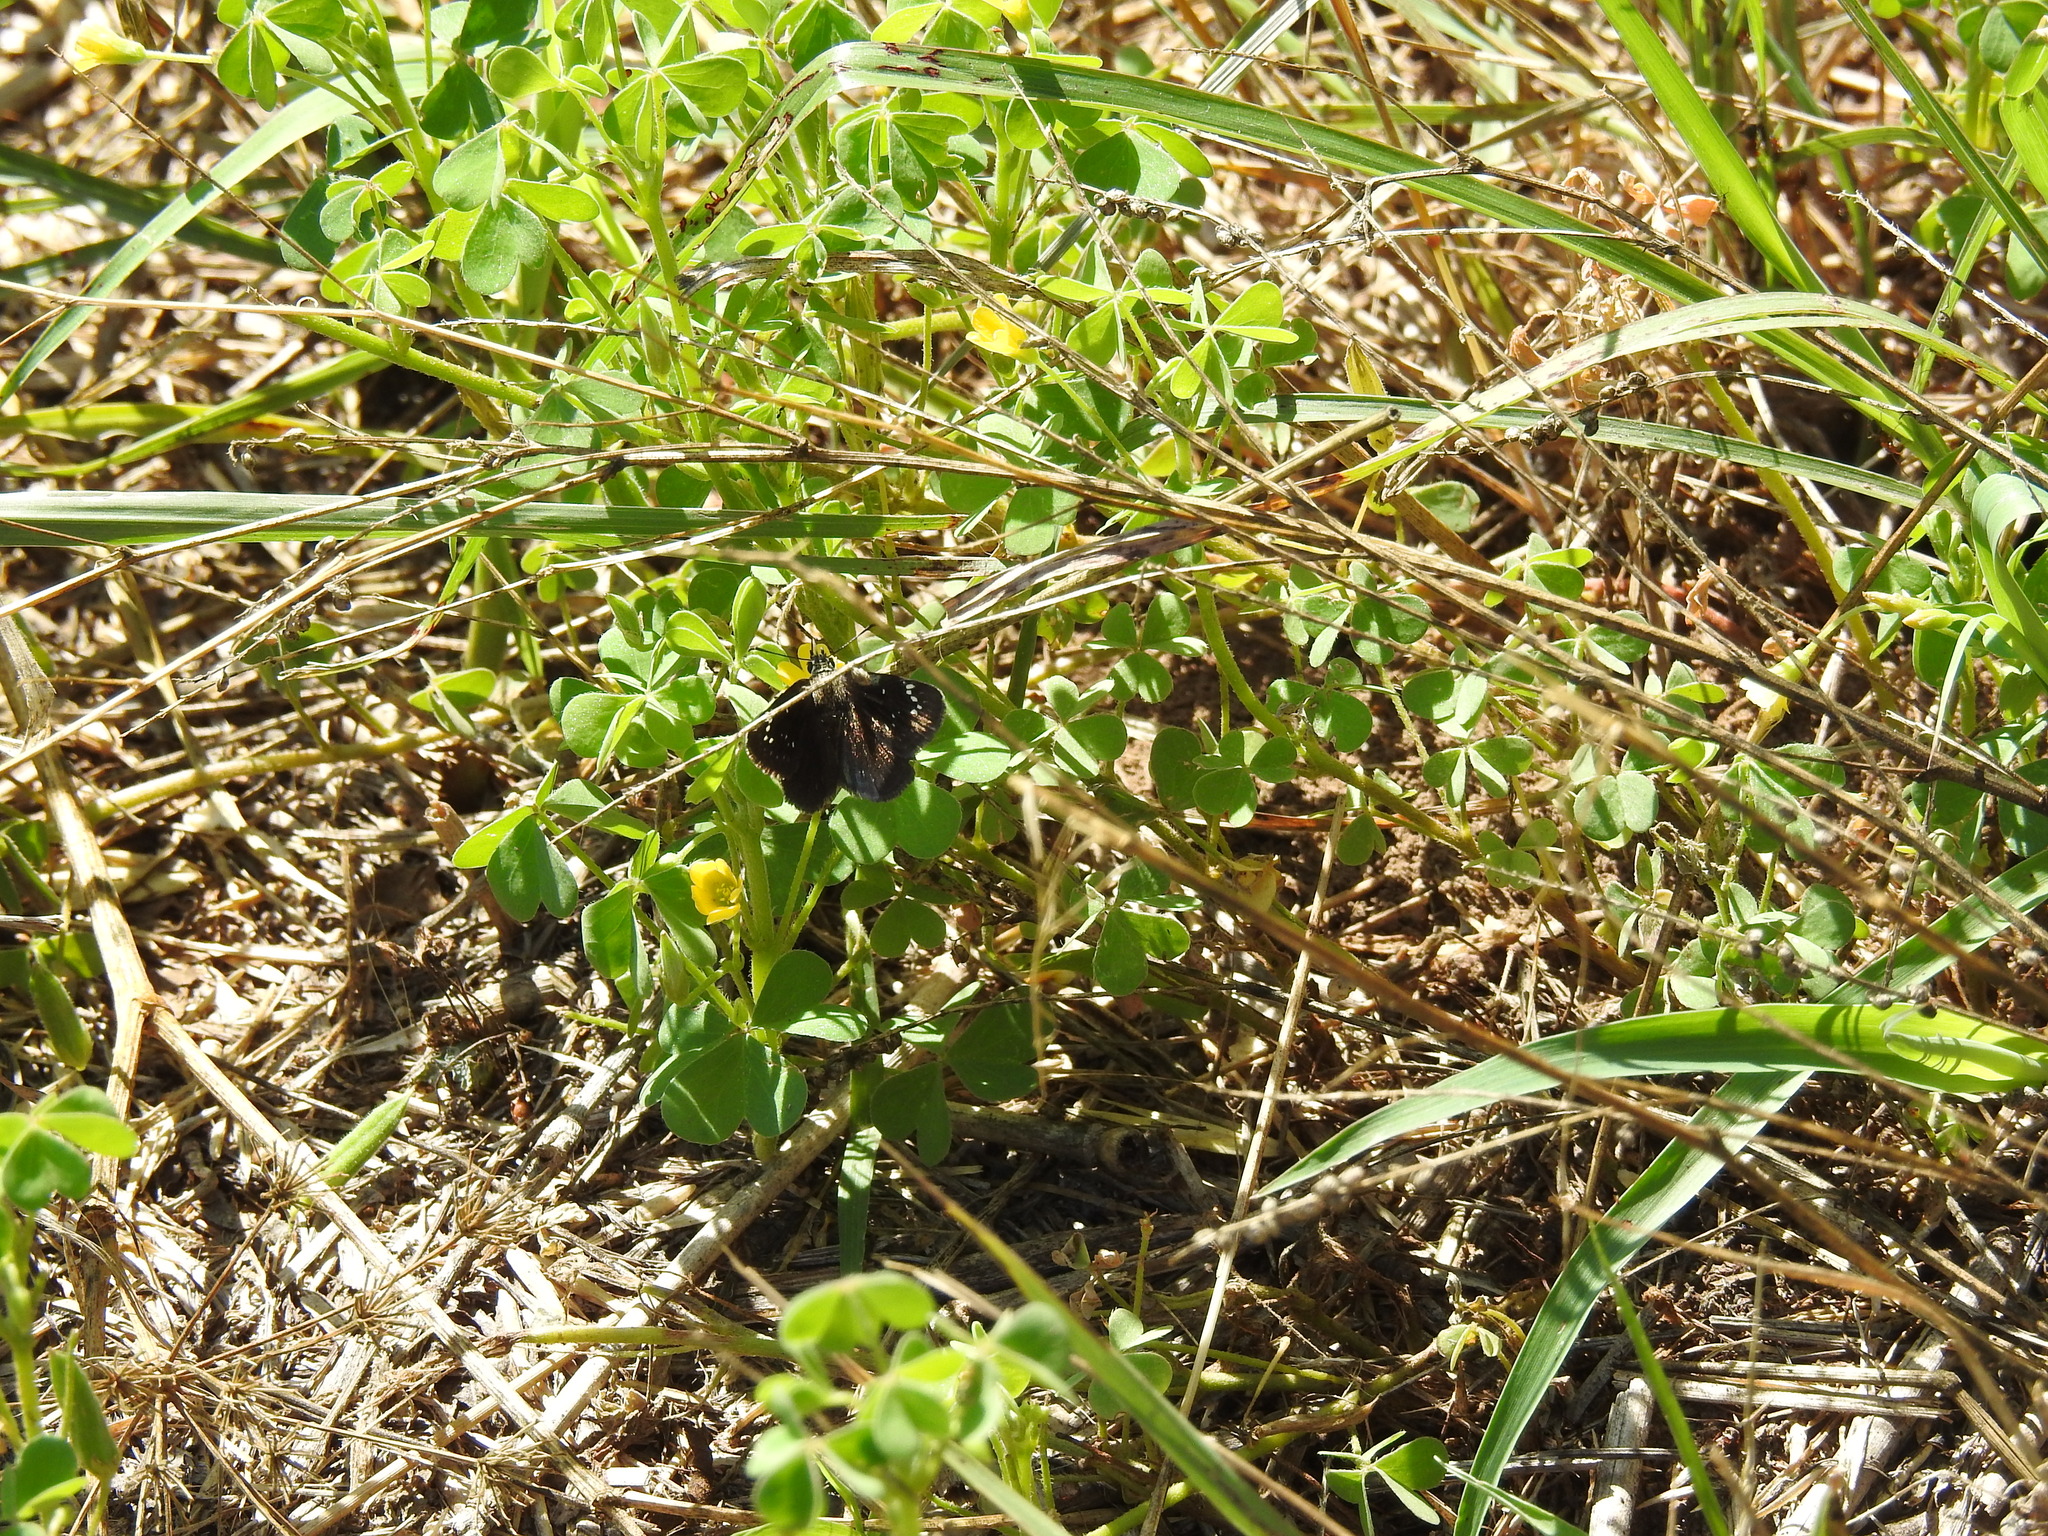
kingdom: Animalia
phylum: Arthropoda
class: Insecta
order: Lepidoptera
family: Hesperiidae
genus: Pholisora
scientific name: Pholisora catullus
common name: Common sootywing
